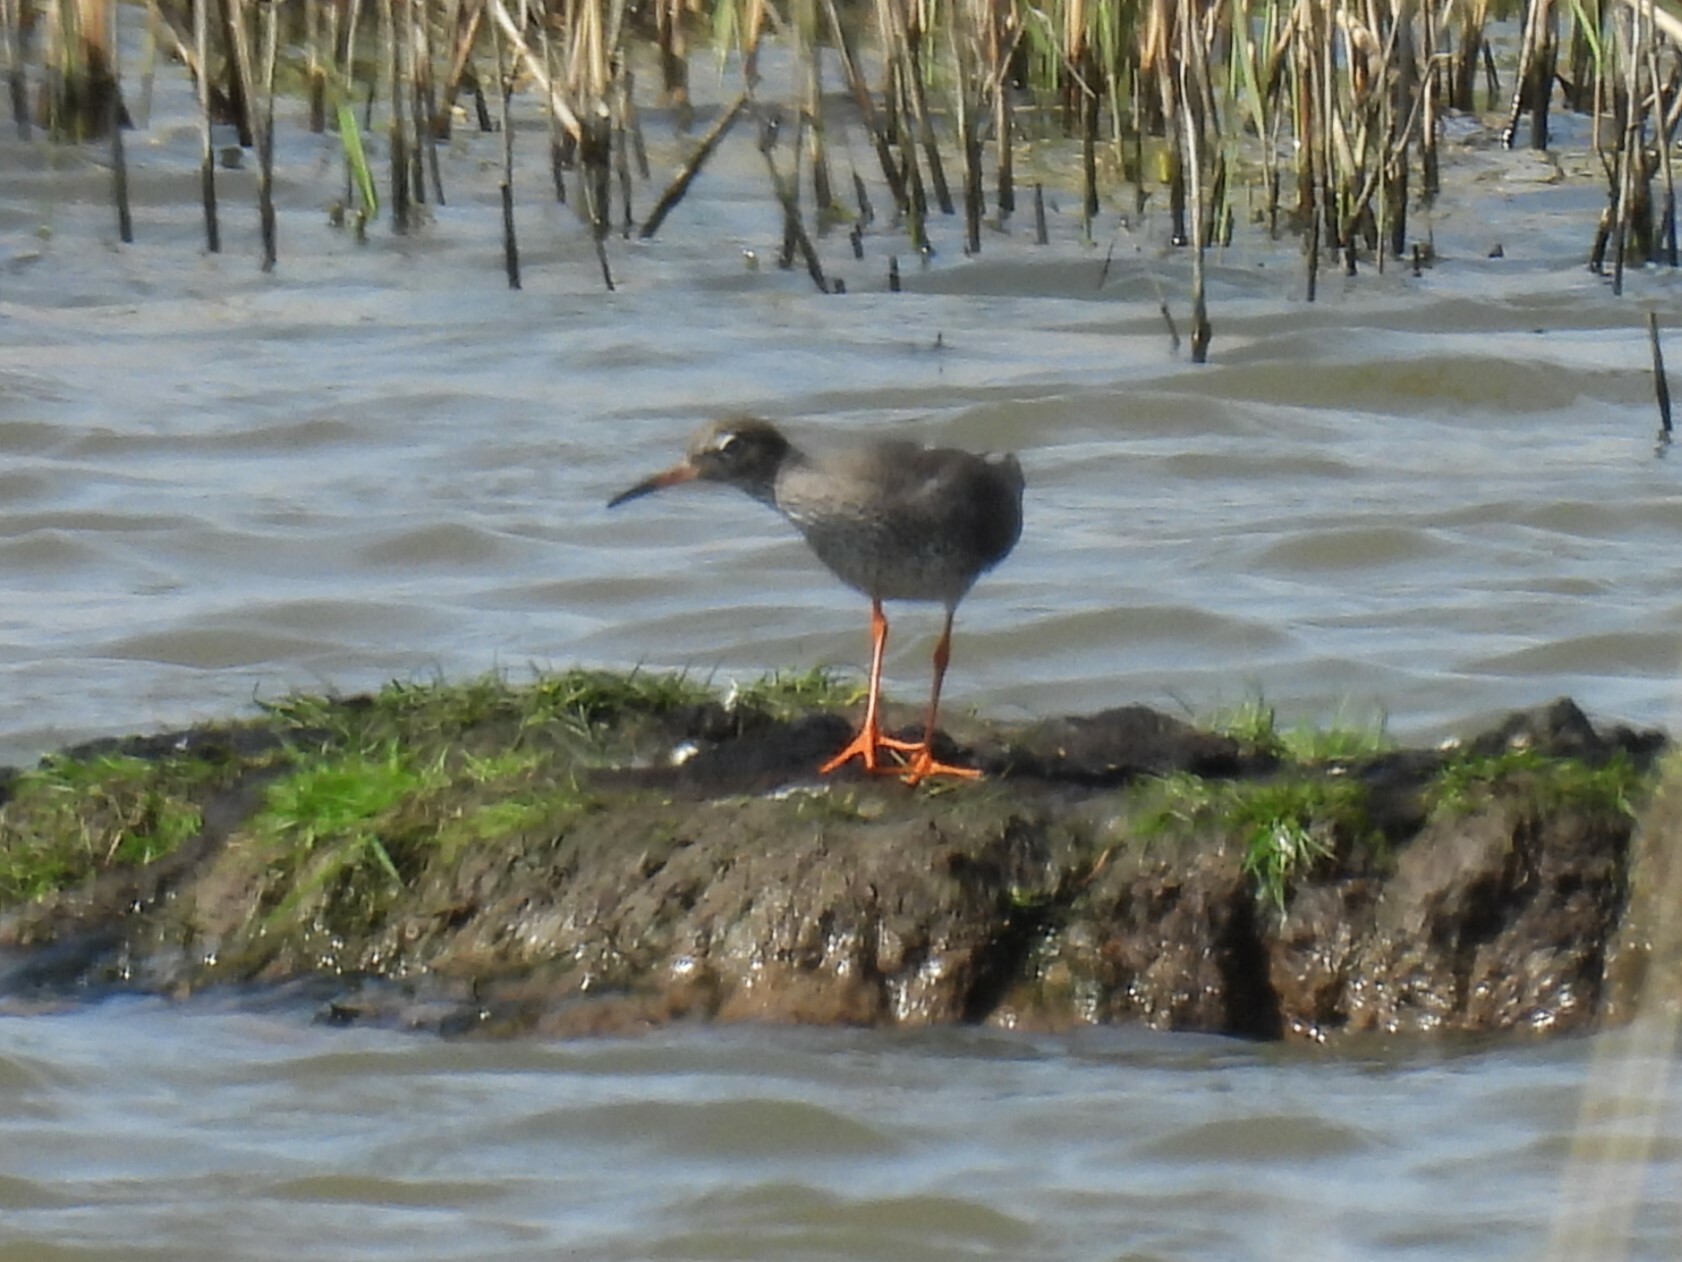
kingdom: Animalia
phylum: Chordata
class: Aves
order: Charadriiformes
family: Scolopacidae
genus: Tringa
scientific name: Tringa totanus
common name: Common redshank
